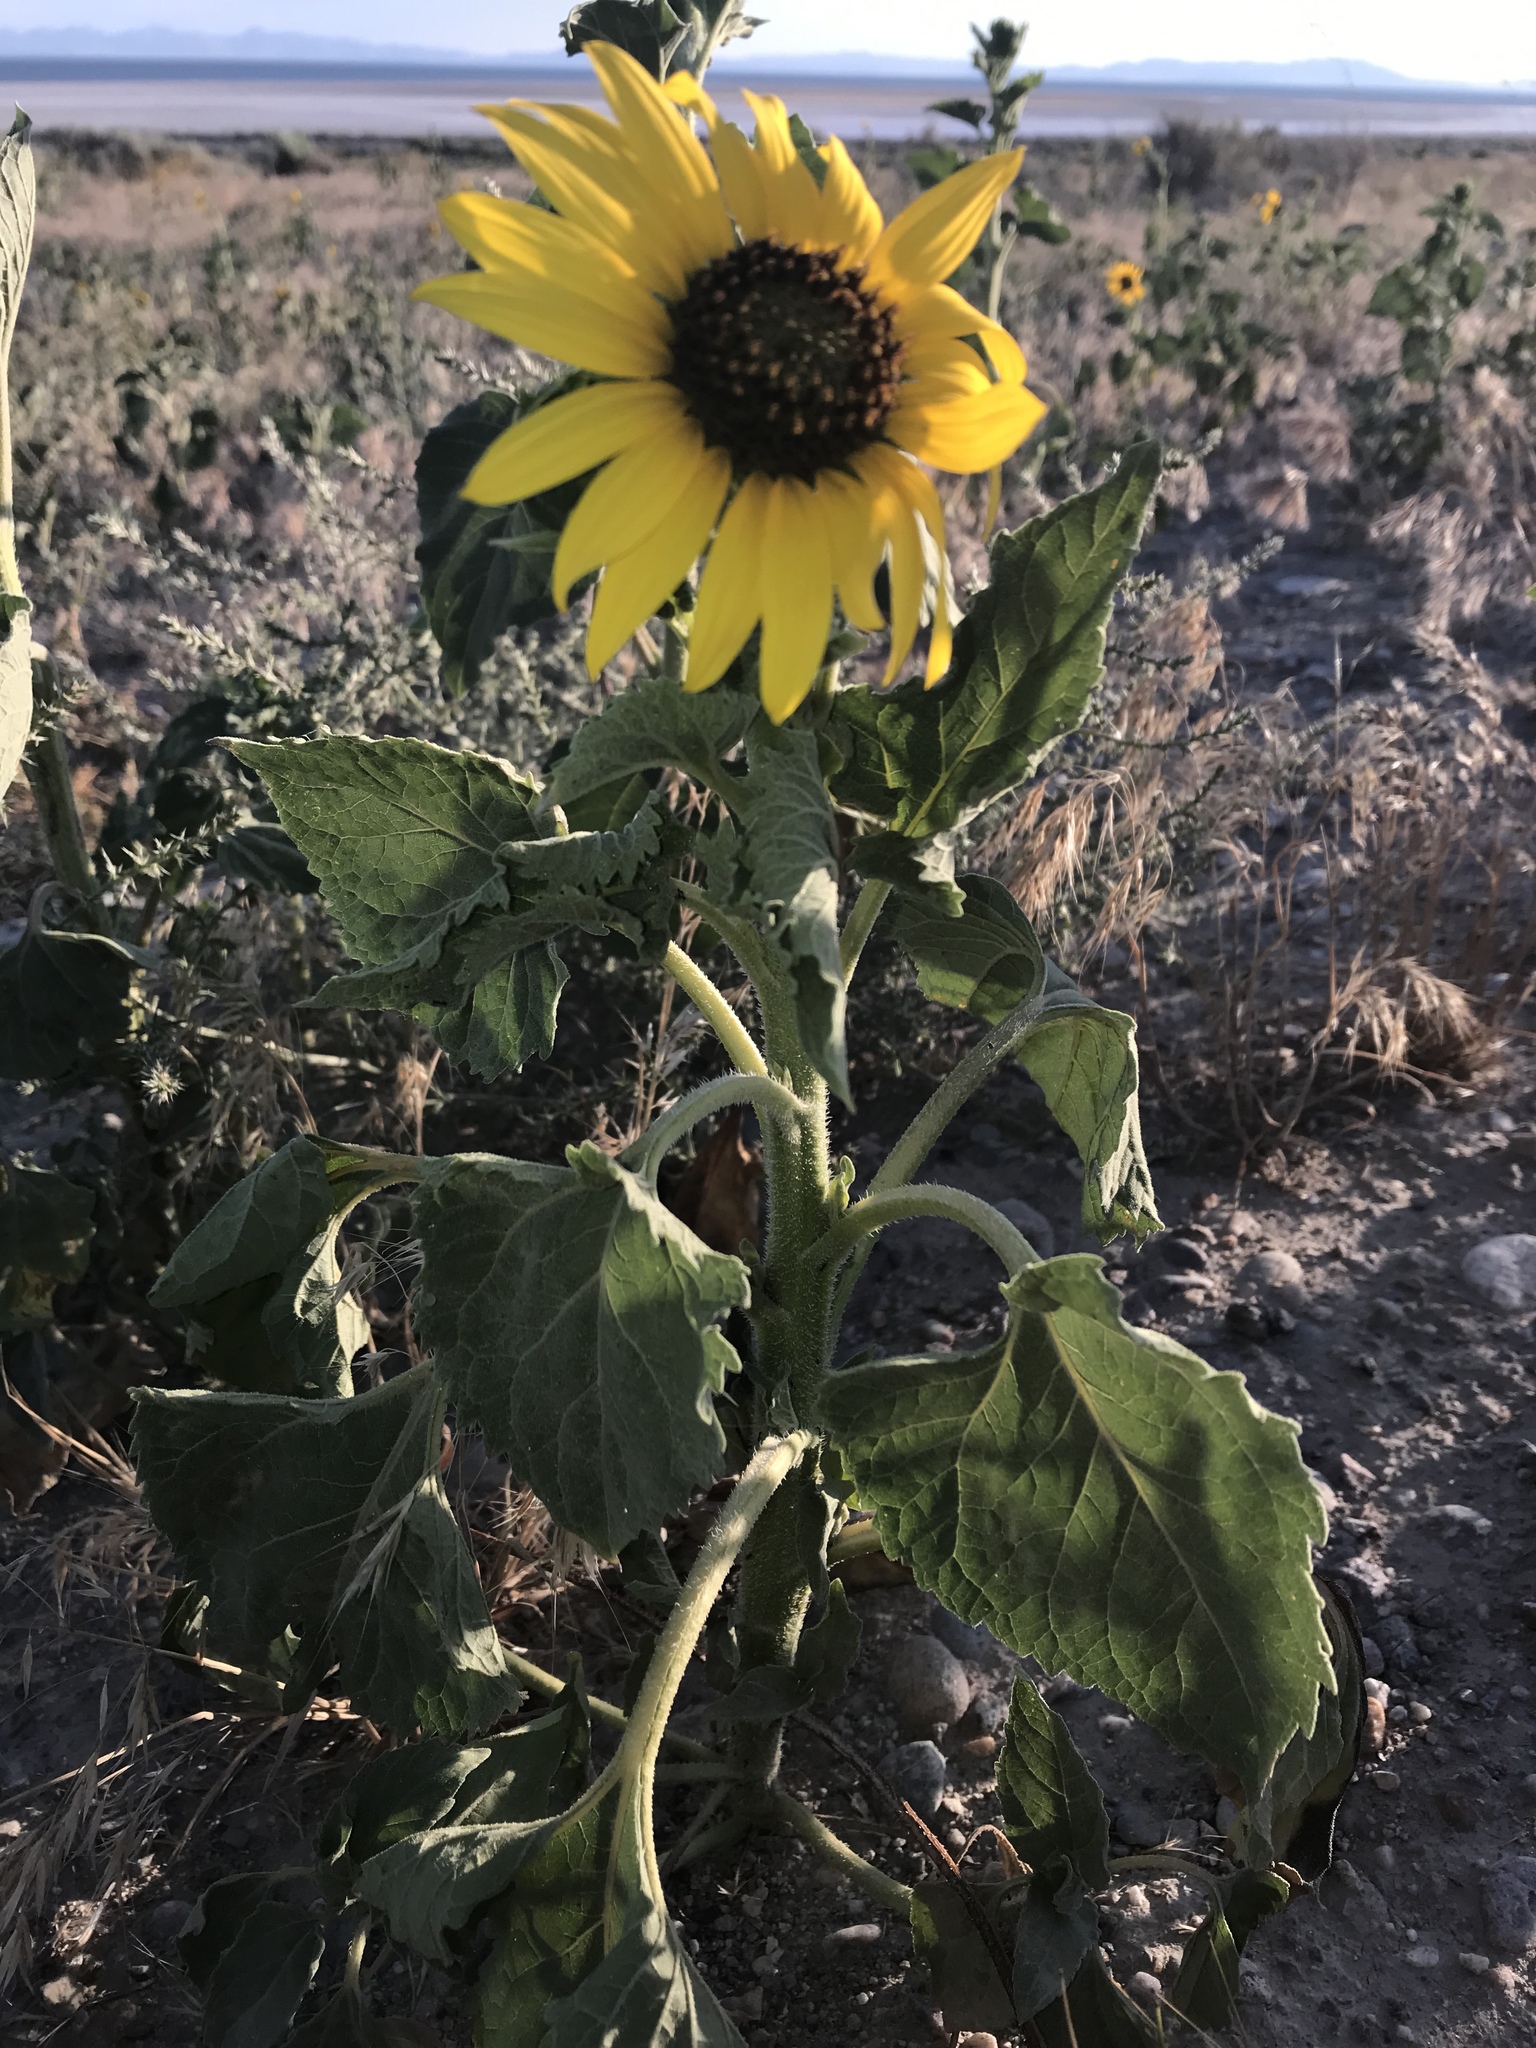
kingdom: Plantae
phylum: Tracheophyta
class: Magnoliopsida
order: Asterales
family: Asteraceae
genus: Helianthus
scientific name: Helianthus annuus
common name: Sunflower
